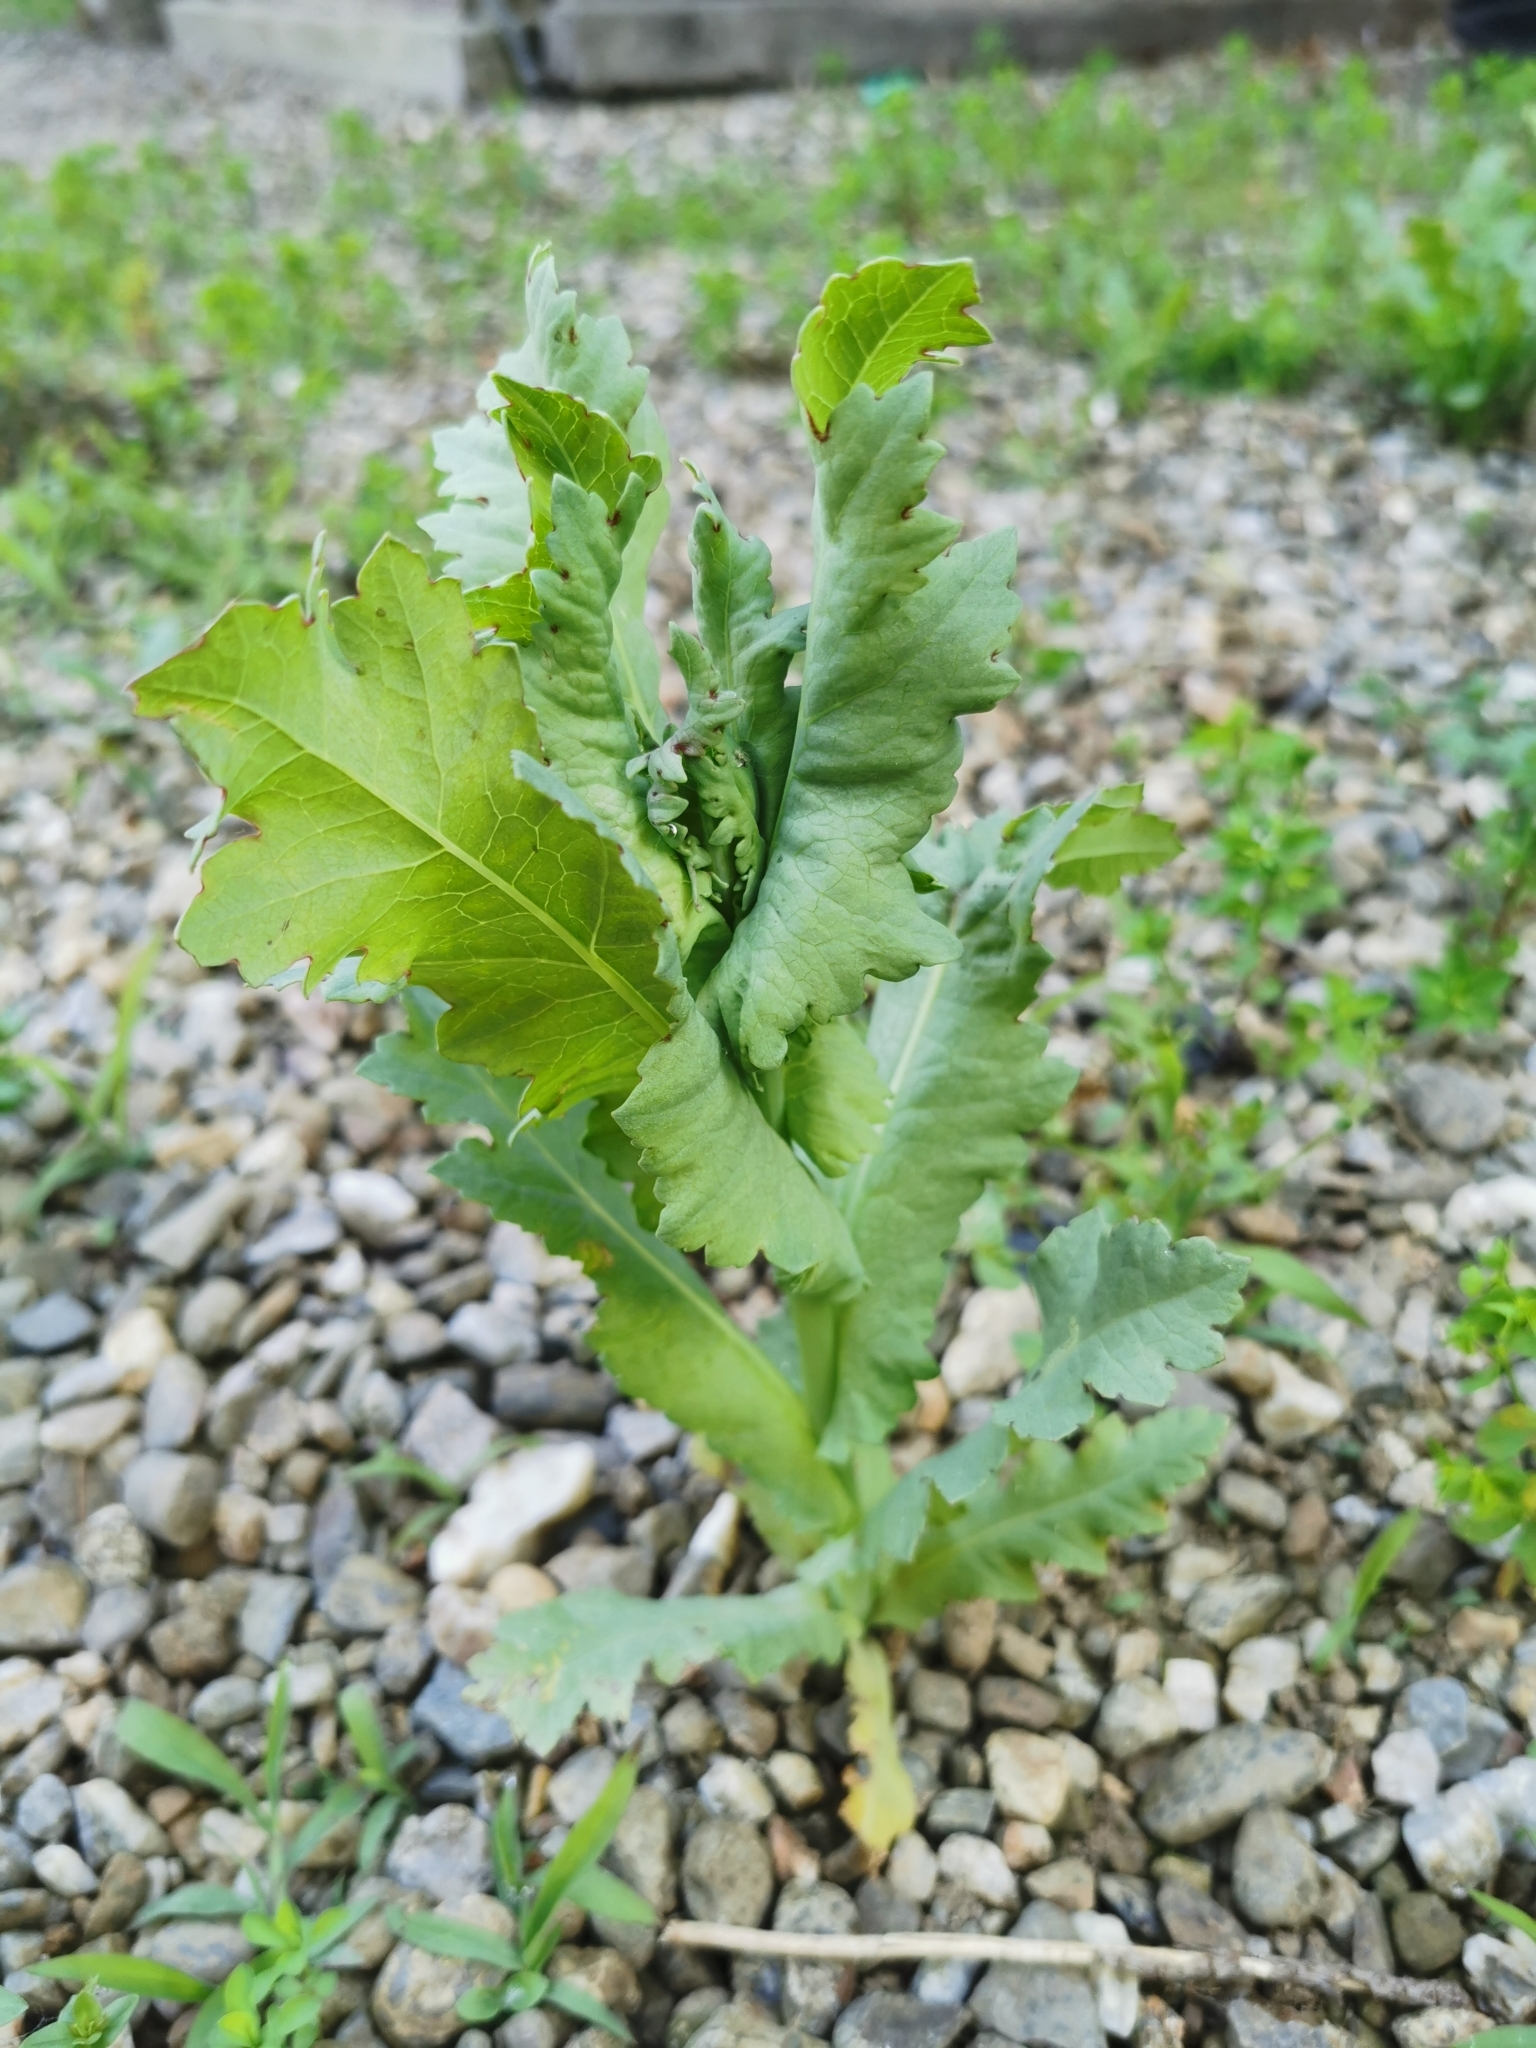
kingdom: Plantae
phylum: Tracheophyta
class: Magnoliopsida
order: Ranunculales
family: Papaveraceae
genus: Papaver
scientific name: Papaver somniferum
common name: Opium poppy
